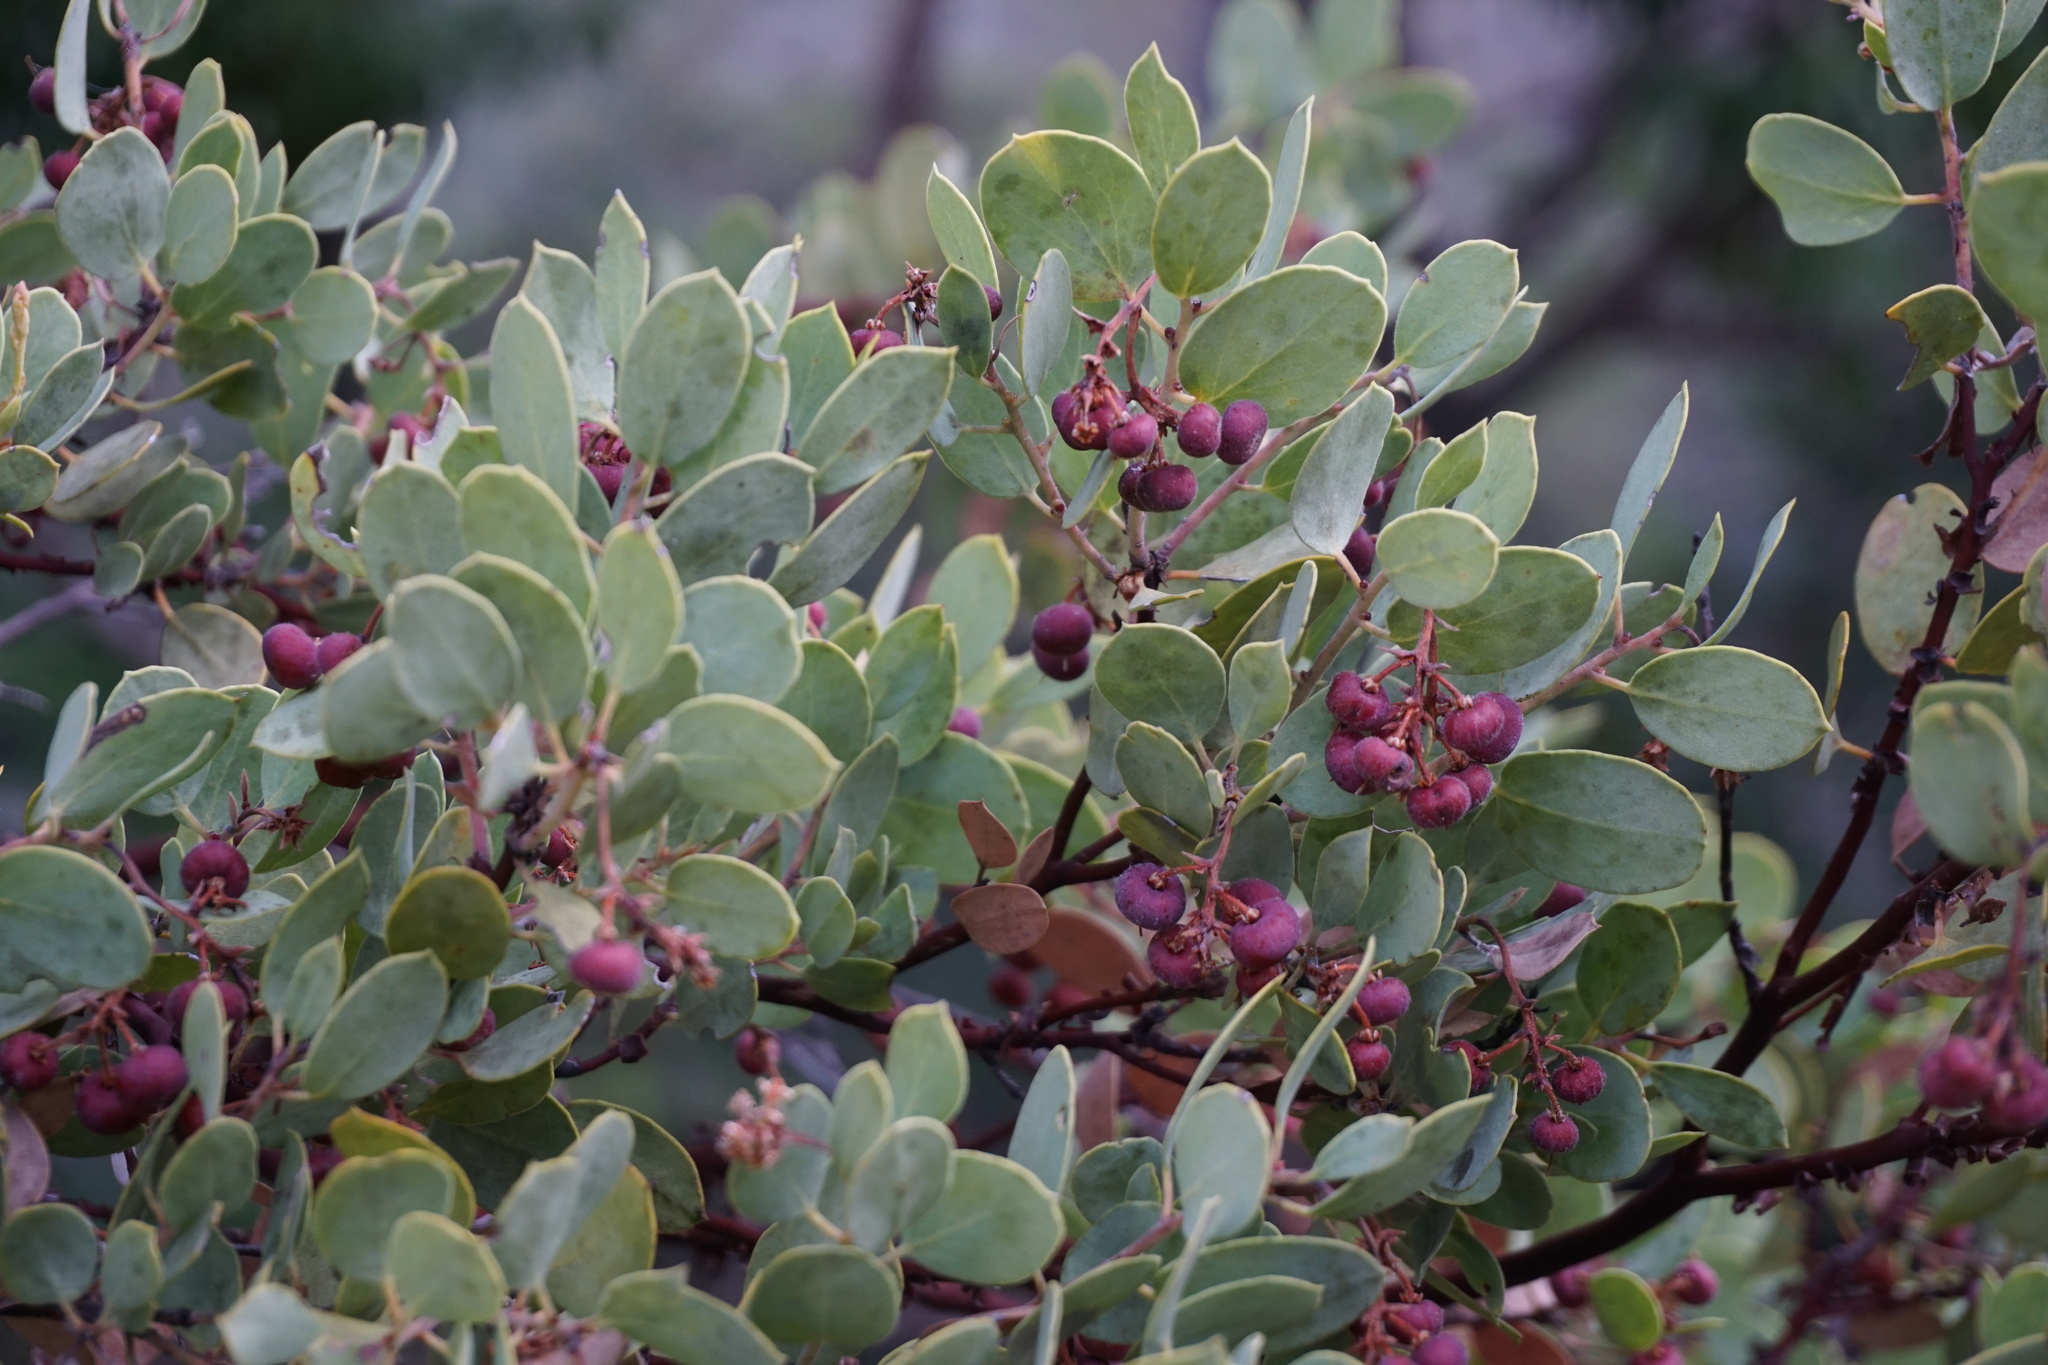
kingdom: Plantae
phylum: Tracheophyta
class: Magnoliopsida
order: Ericales
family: Ericaceae
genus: Arctostaphylos
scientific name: Arctostaphylos viscida
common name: White-leaf manzanita
